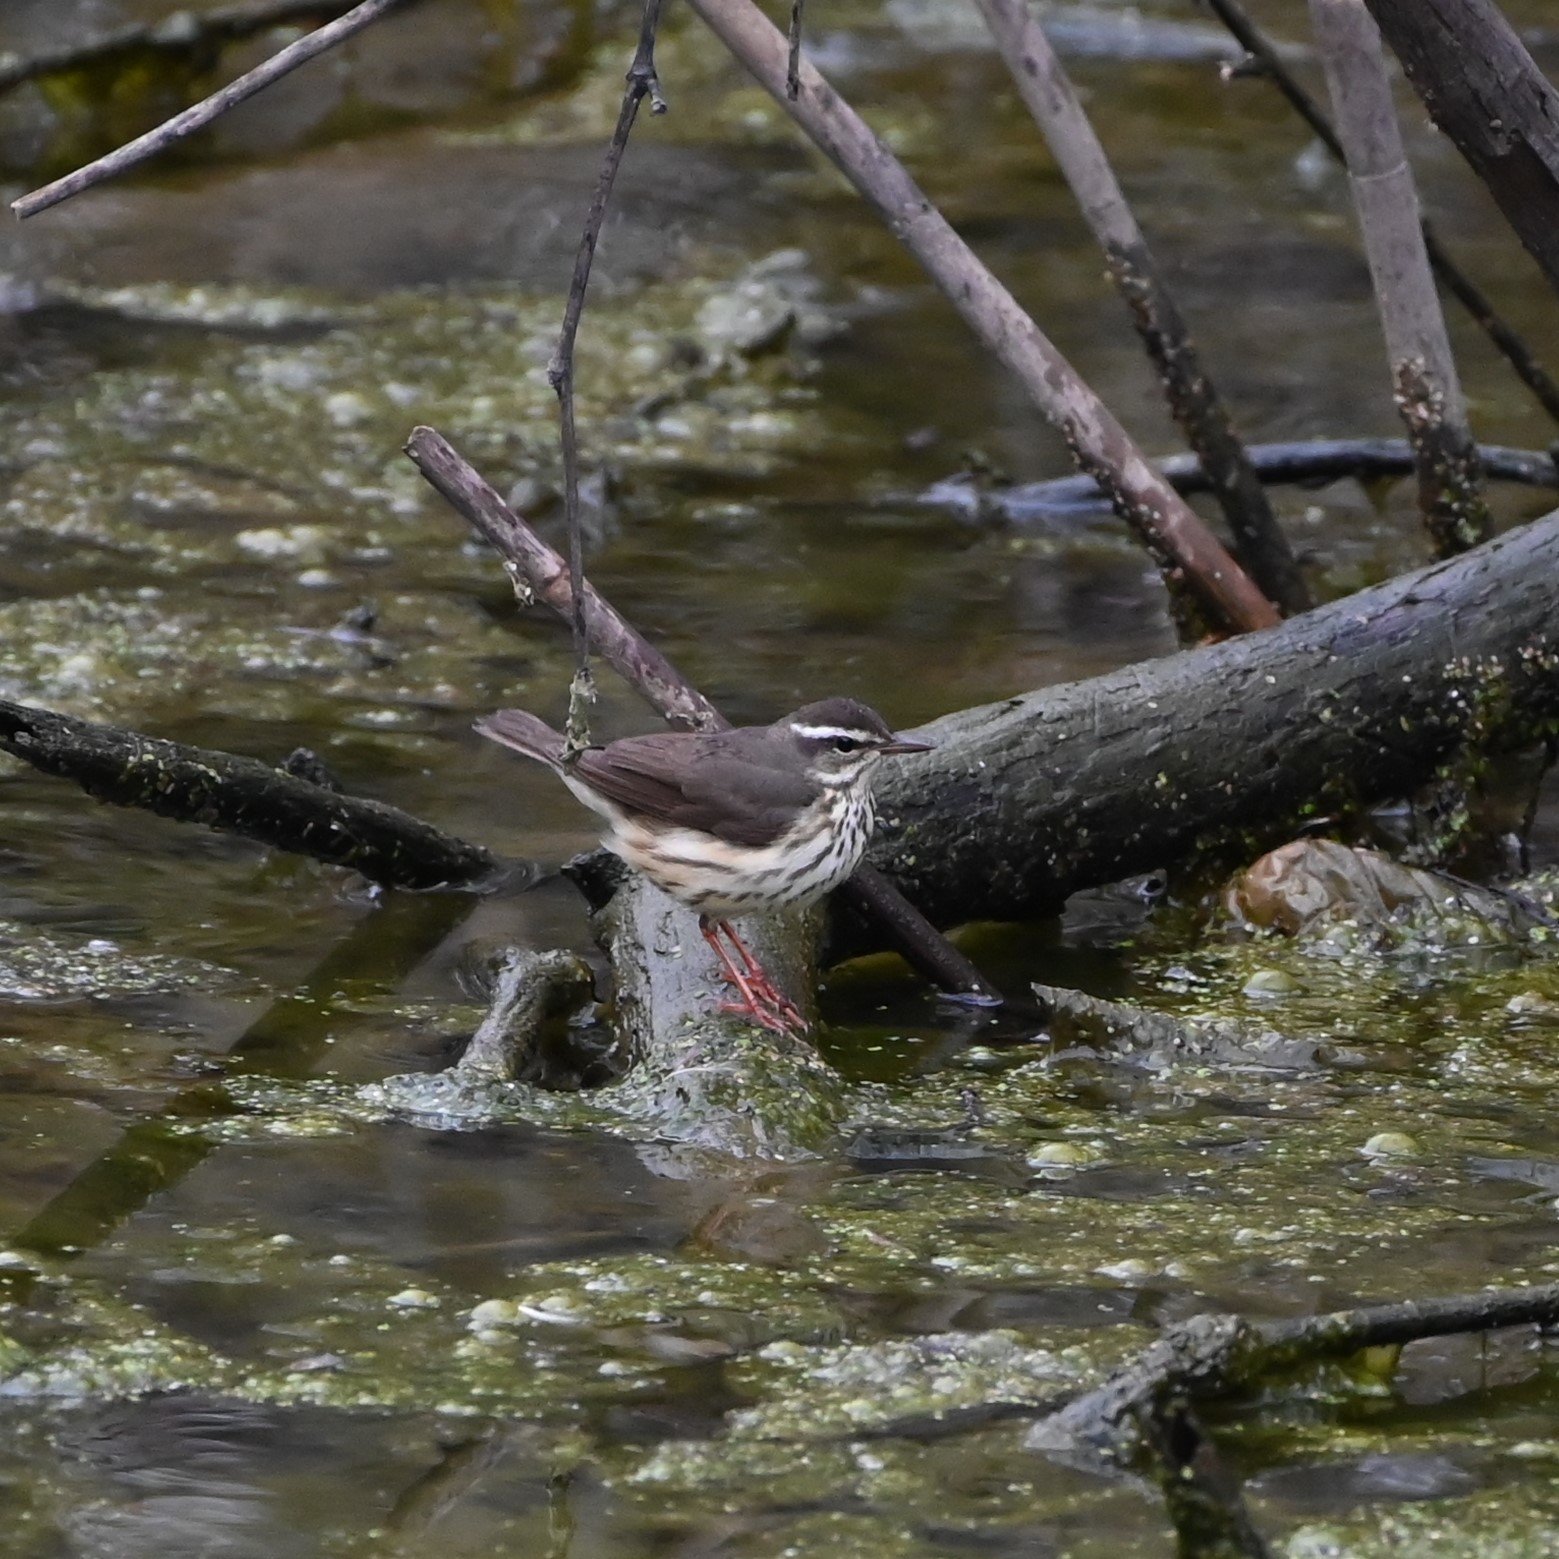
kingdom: Animalia
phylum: Chordata
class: Aves
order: Passeriformes
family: Parulidae
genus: Parkesia
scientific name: Parkesia motacilla
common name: Louisiana waterthrush
